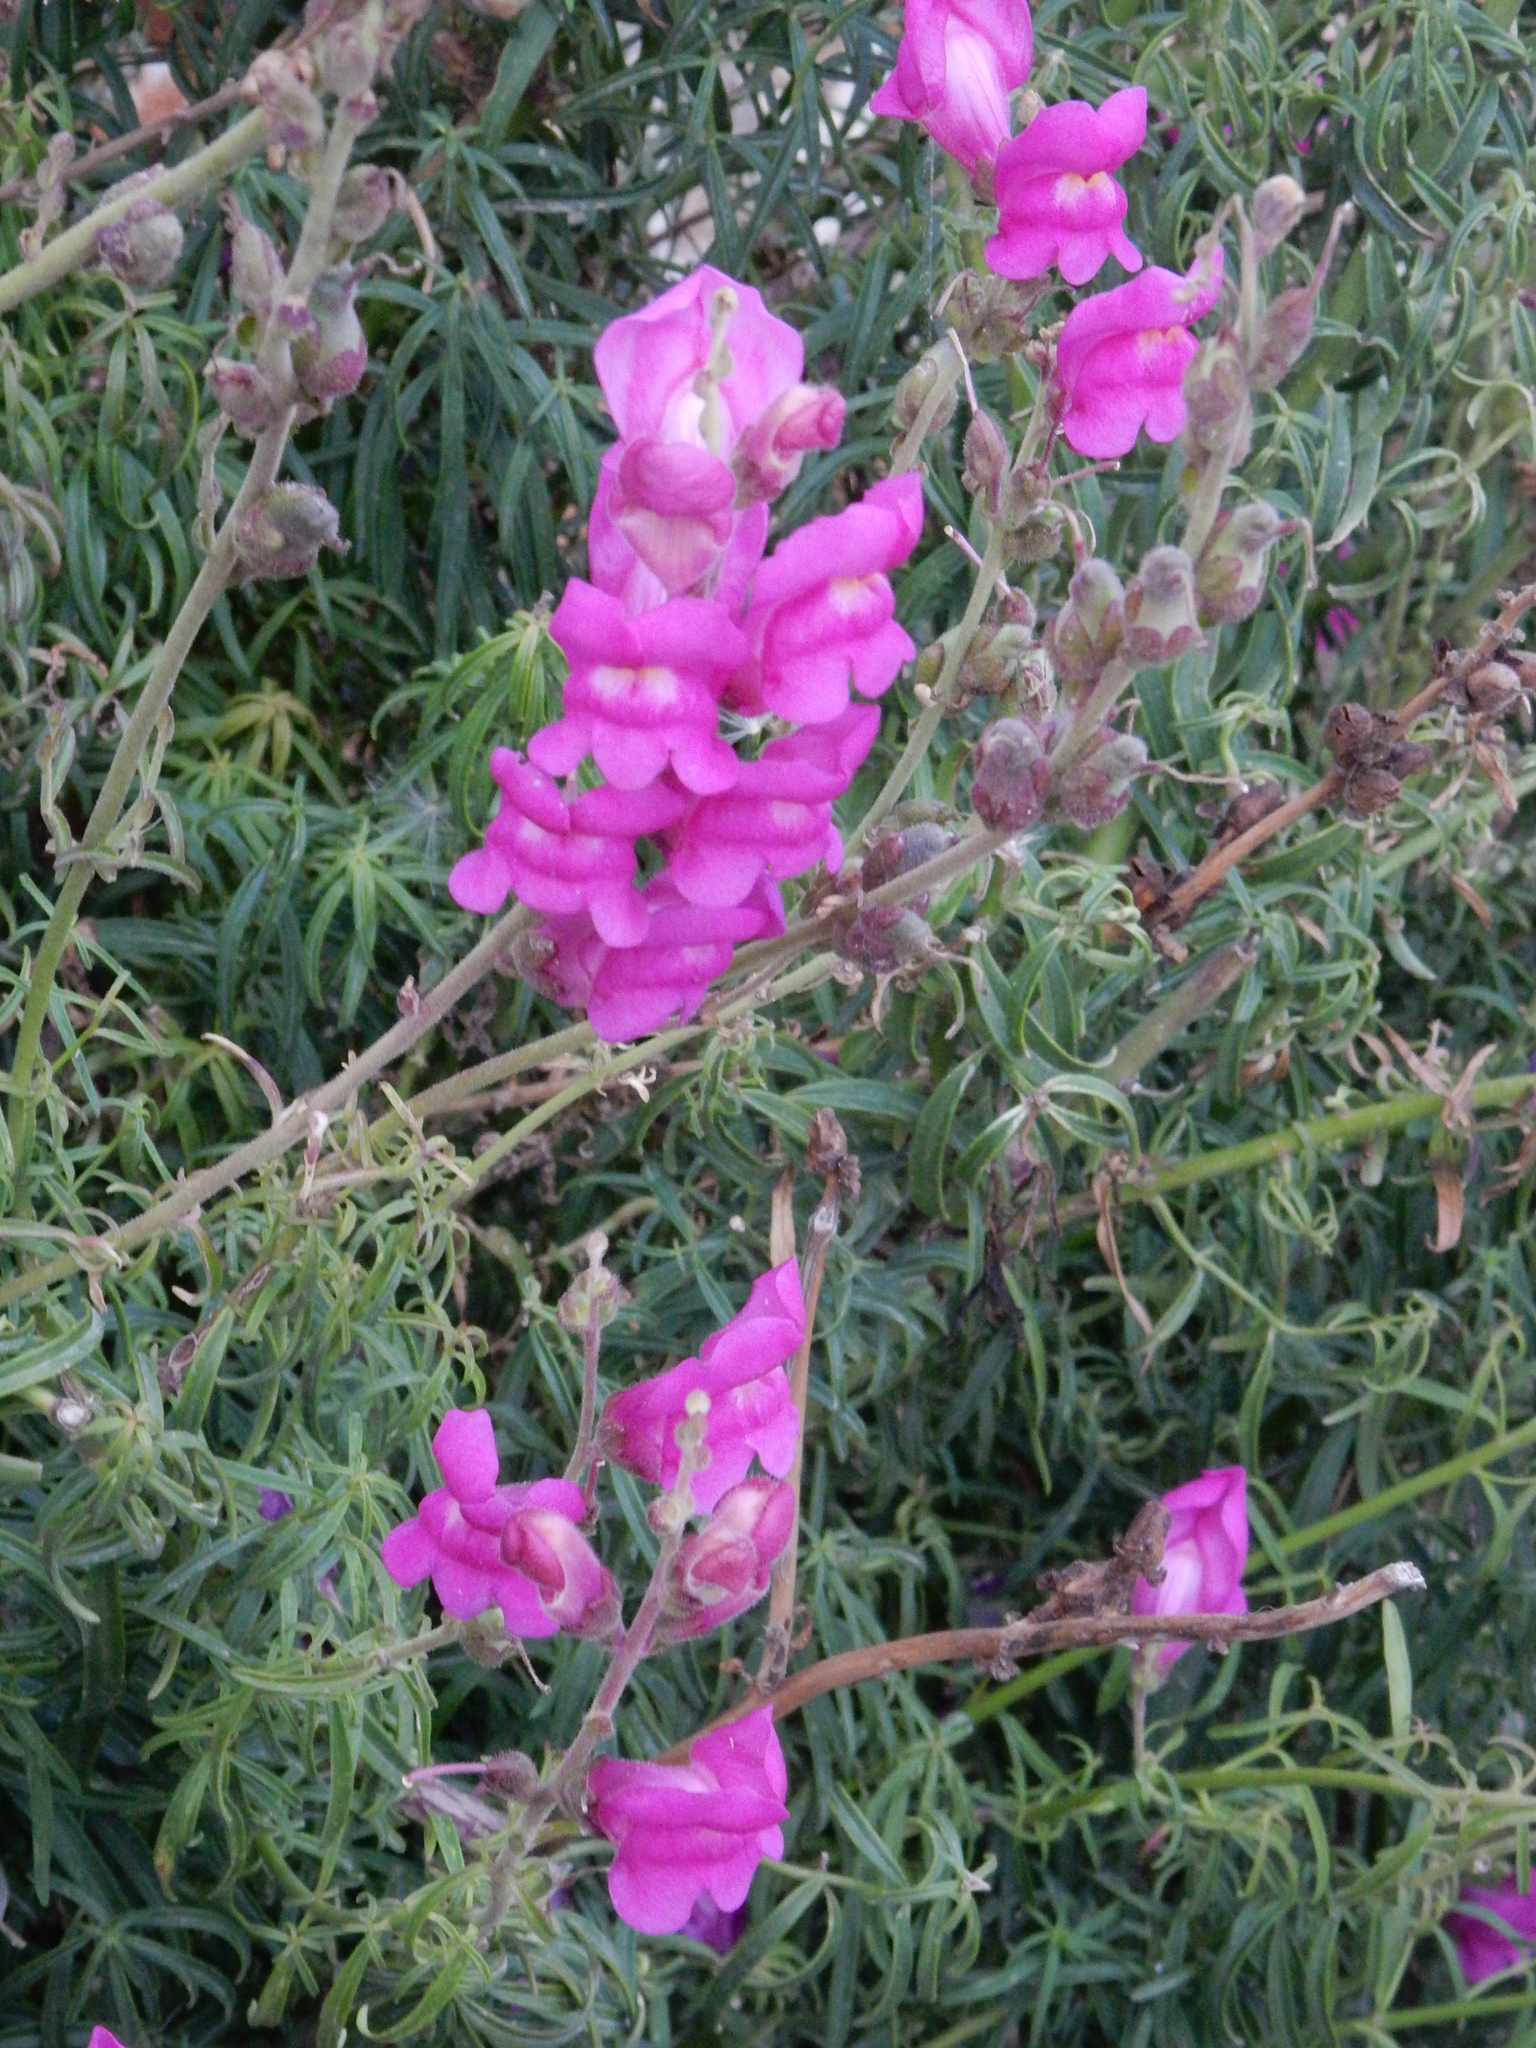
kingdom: Plantae
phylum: Tracheophyta
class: Magnoliopsida
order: Lamiales
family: Plantaginaceae
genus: Antirrhinum
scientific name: Antirrhinum tortuosum
